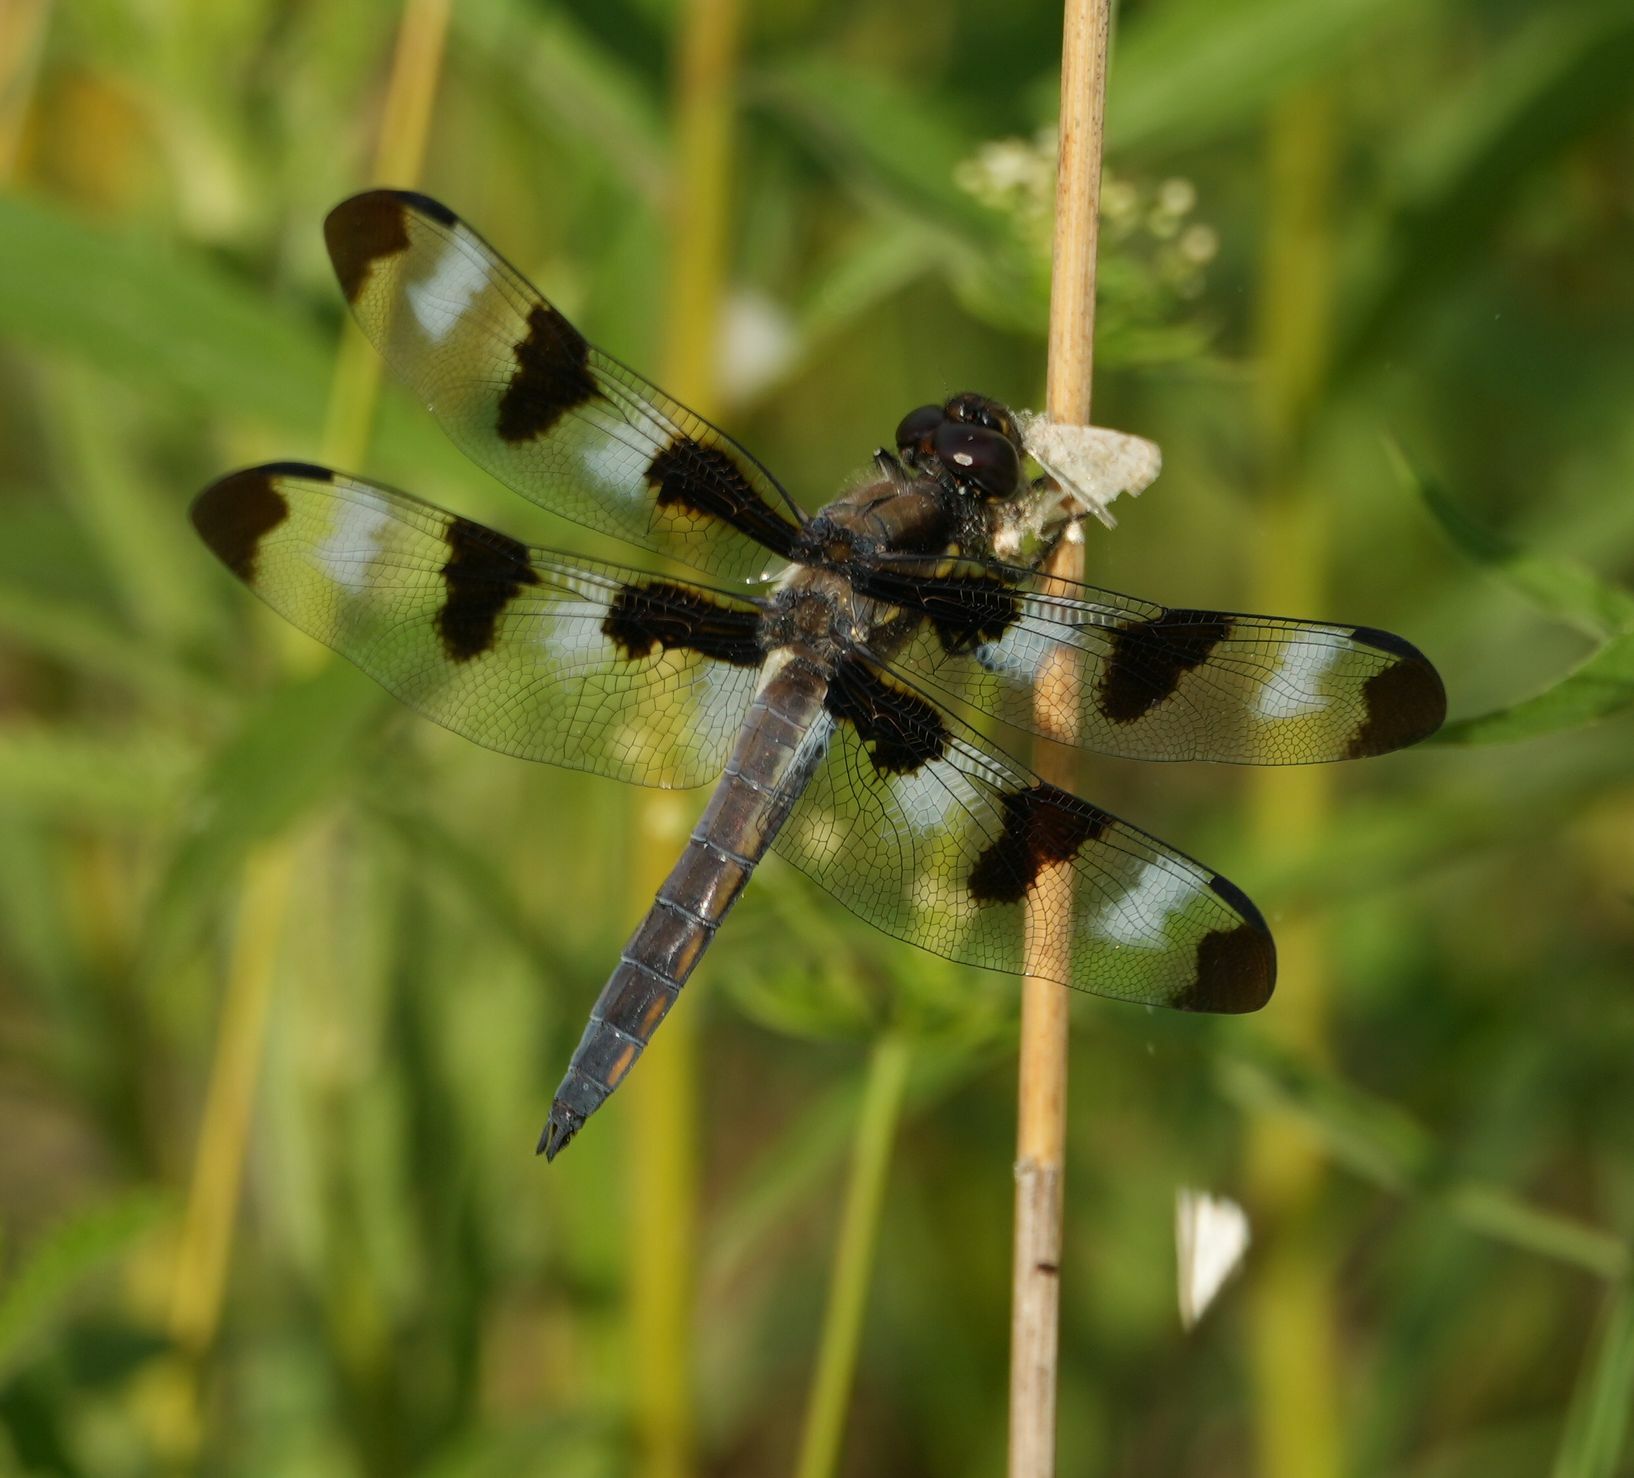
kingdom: Animalia
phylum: Arthropoda
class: Insecta
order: Odonata
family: Libellulidae
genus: Libellula
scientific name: Libellula pulchella
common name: Twelve-spotted skimmer
